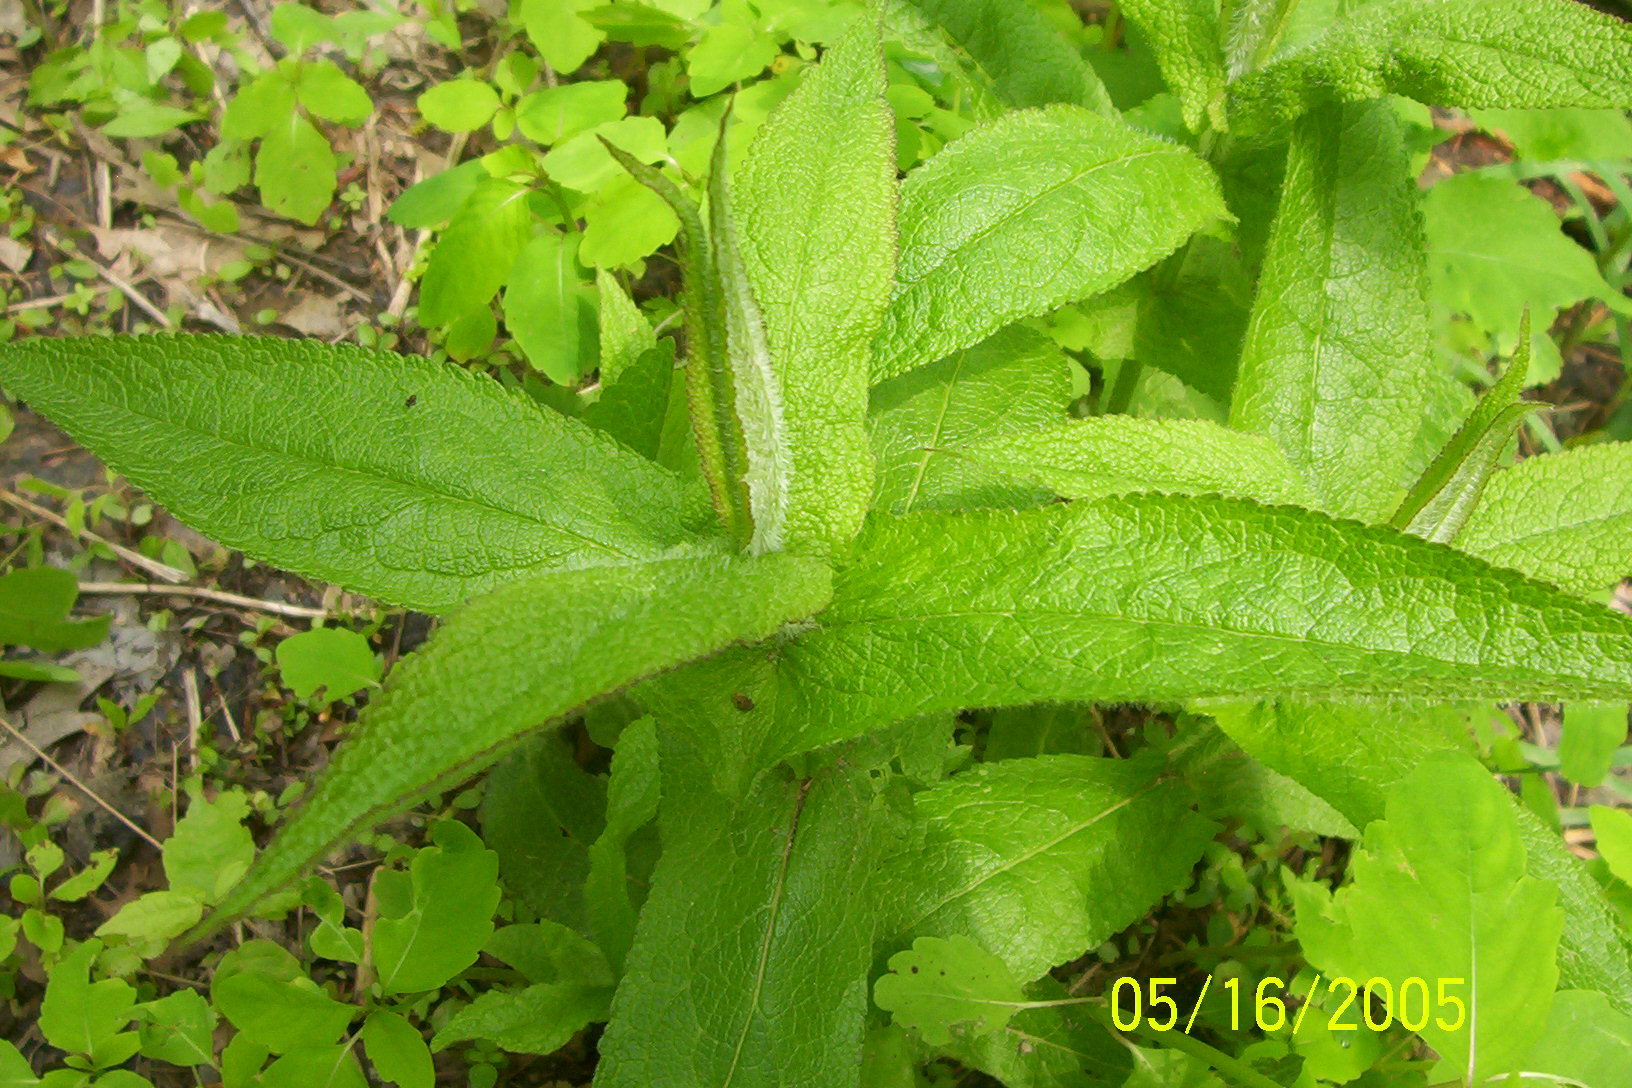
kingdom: Plantae
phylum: Tracheophyta
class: Magnoliopsida
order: Asterales
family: Asteraceae
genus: Eupatorium
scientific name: Eupatorium perfoliatum
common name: Boneset
